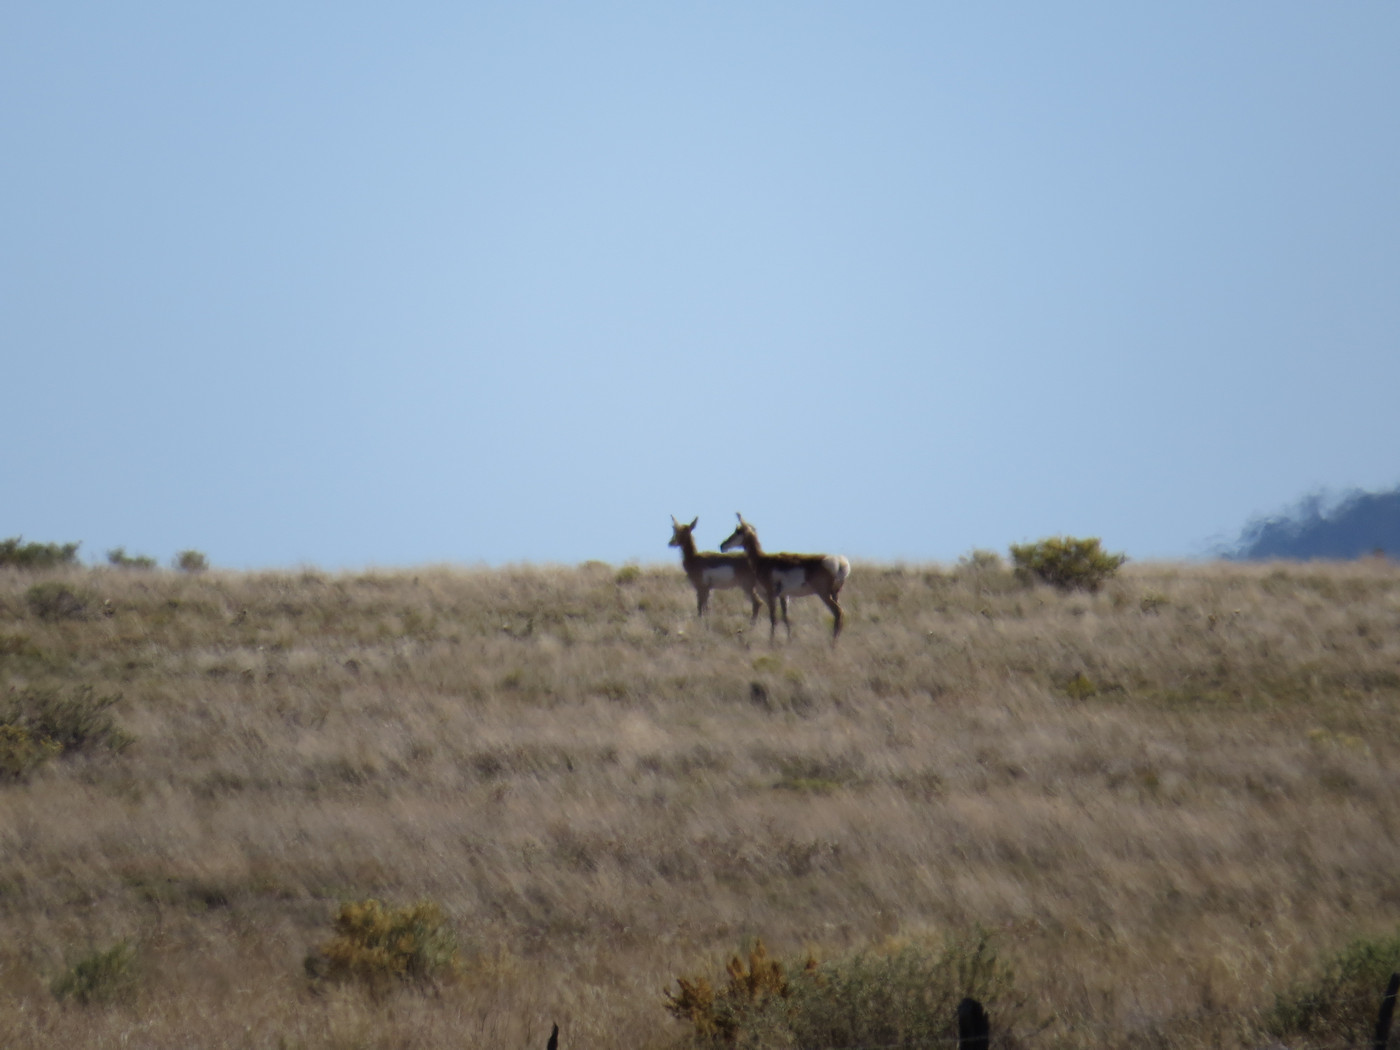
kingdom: Animalia
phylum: Chordata
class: Mammalia
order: Artiodactyla
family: Antilocapridae
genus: Antilocapra
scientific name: Antilocapra americana
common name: Pronghorn
